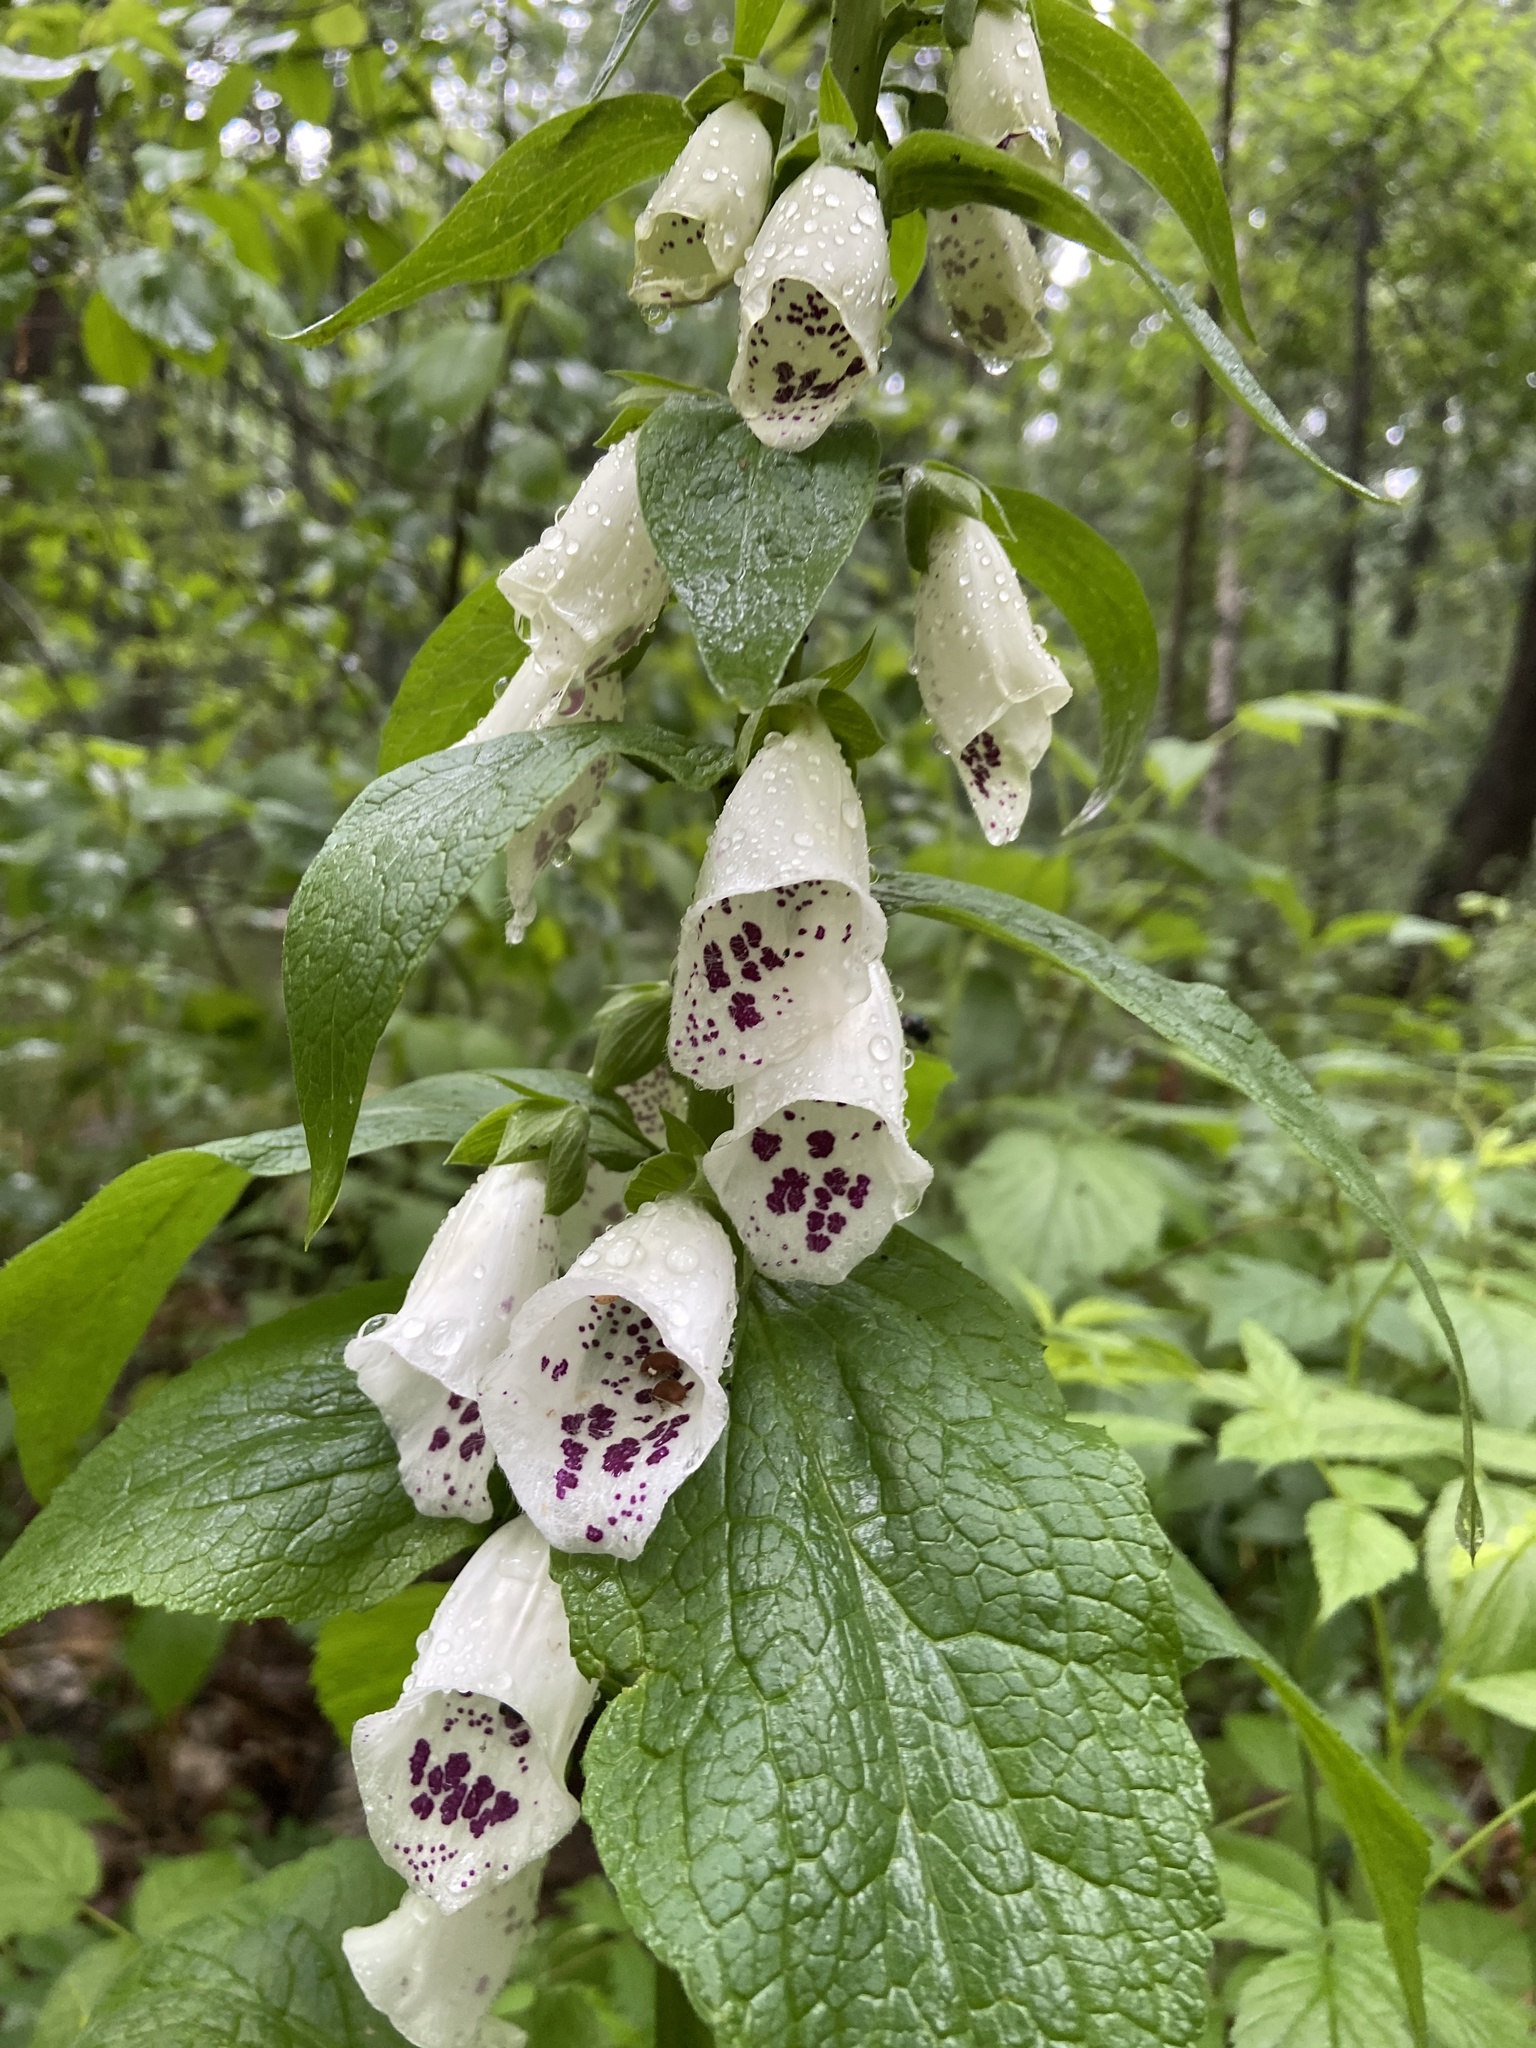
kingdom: Plantae
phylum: Tracheophyta
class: Magnoliopsida
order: Lamiales
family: Plantaginaceae
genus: Digitalis
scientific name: Digitalis purpurea
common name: Foxglove
